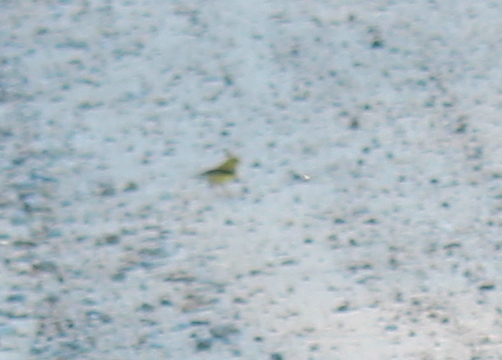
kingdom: Animalia
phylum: Chordata
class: Aves
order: Passeriformes
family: Fringillidae
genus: Spinus
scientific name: Spinus tristis
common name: American goldfinch
